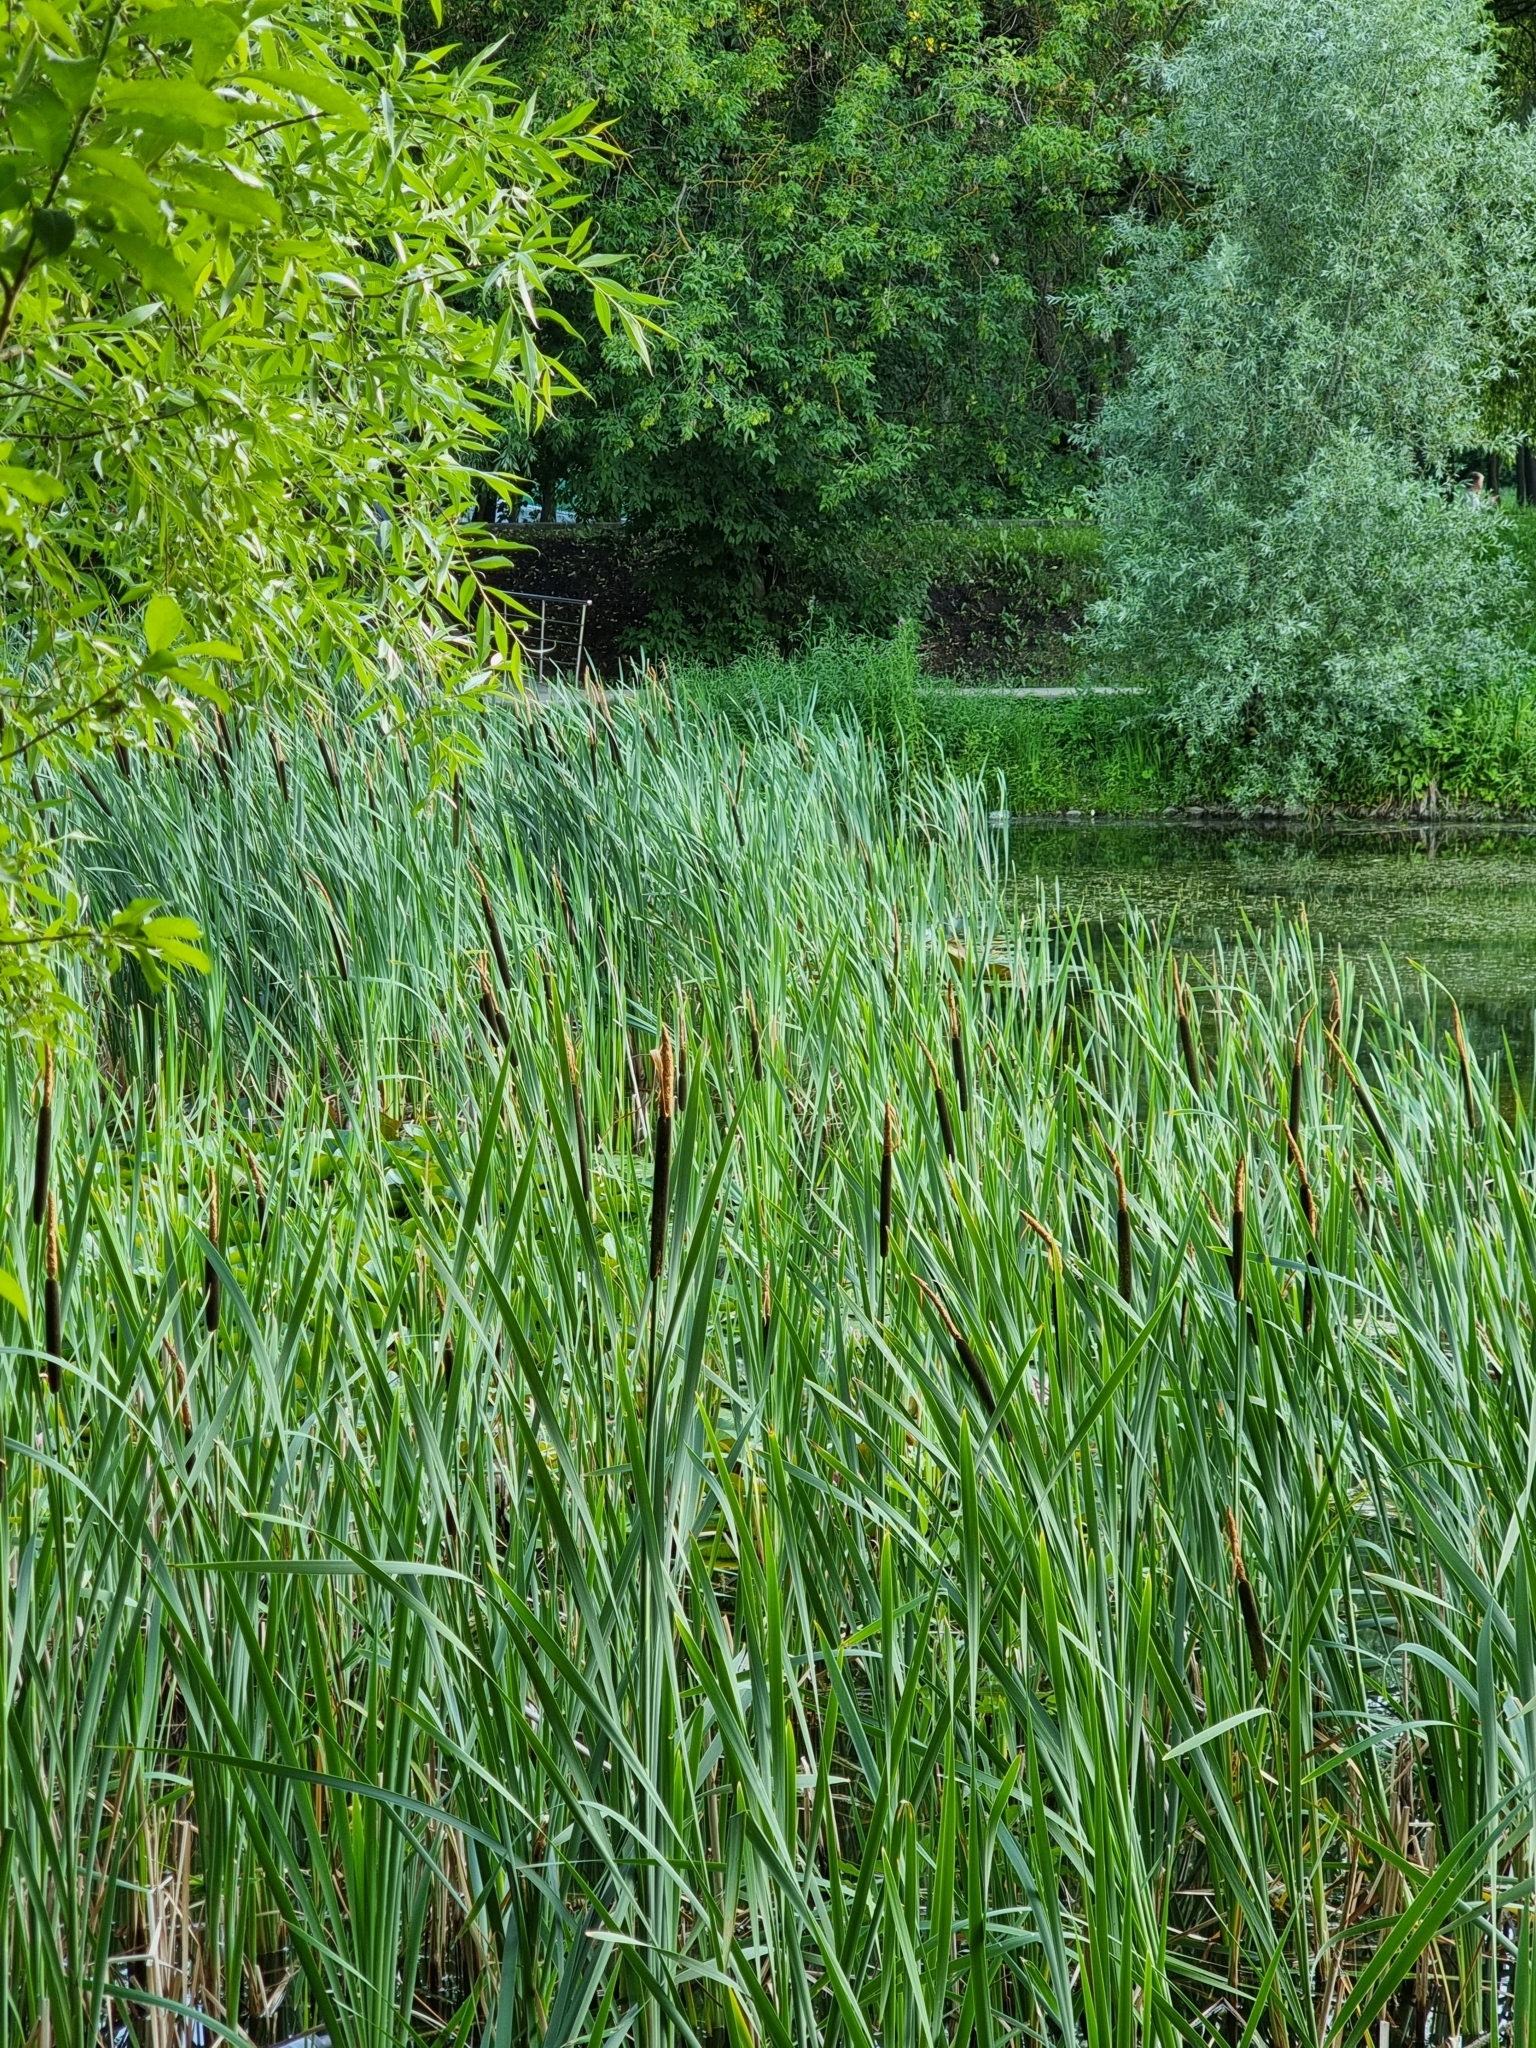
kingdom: Plantae
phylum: Tracheophyta
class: Liliopsida
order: Poales
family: Typhaceae
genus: Typha
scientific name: Typha latifolia
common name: Broadleaf cattail
